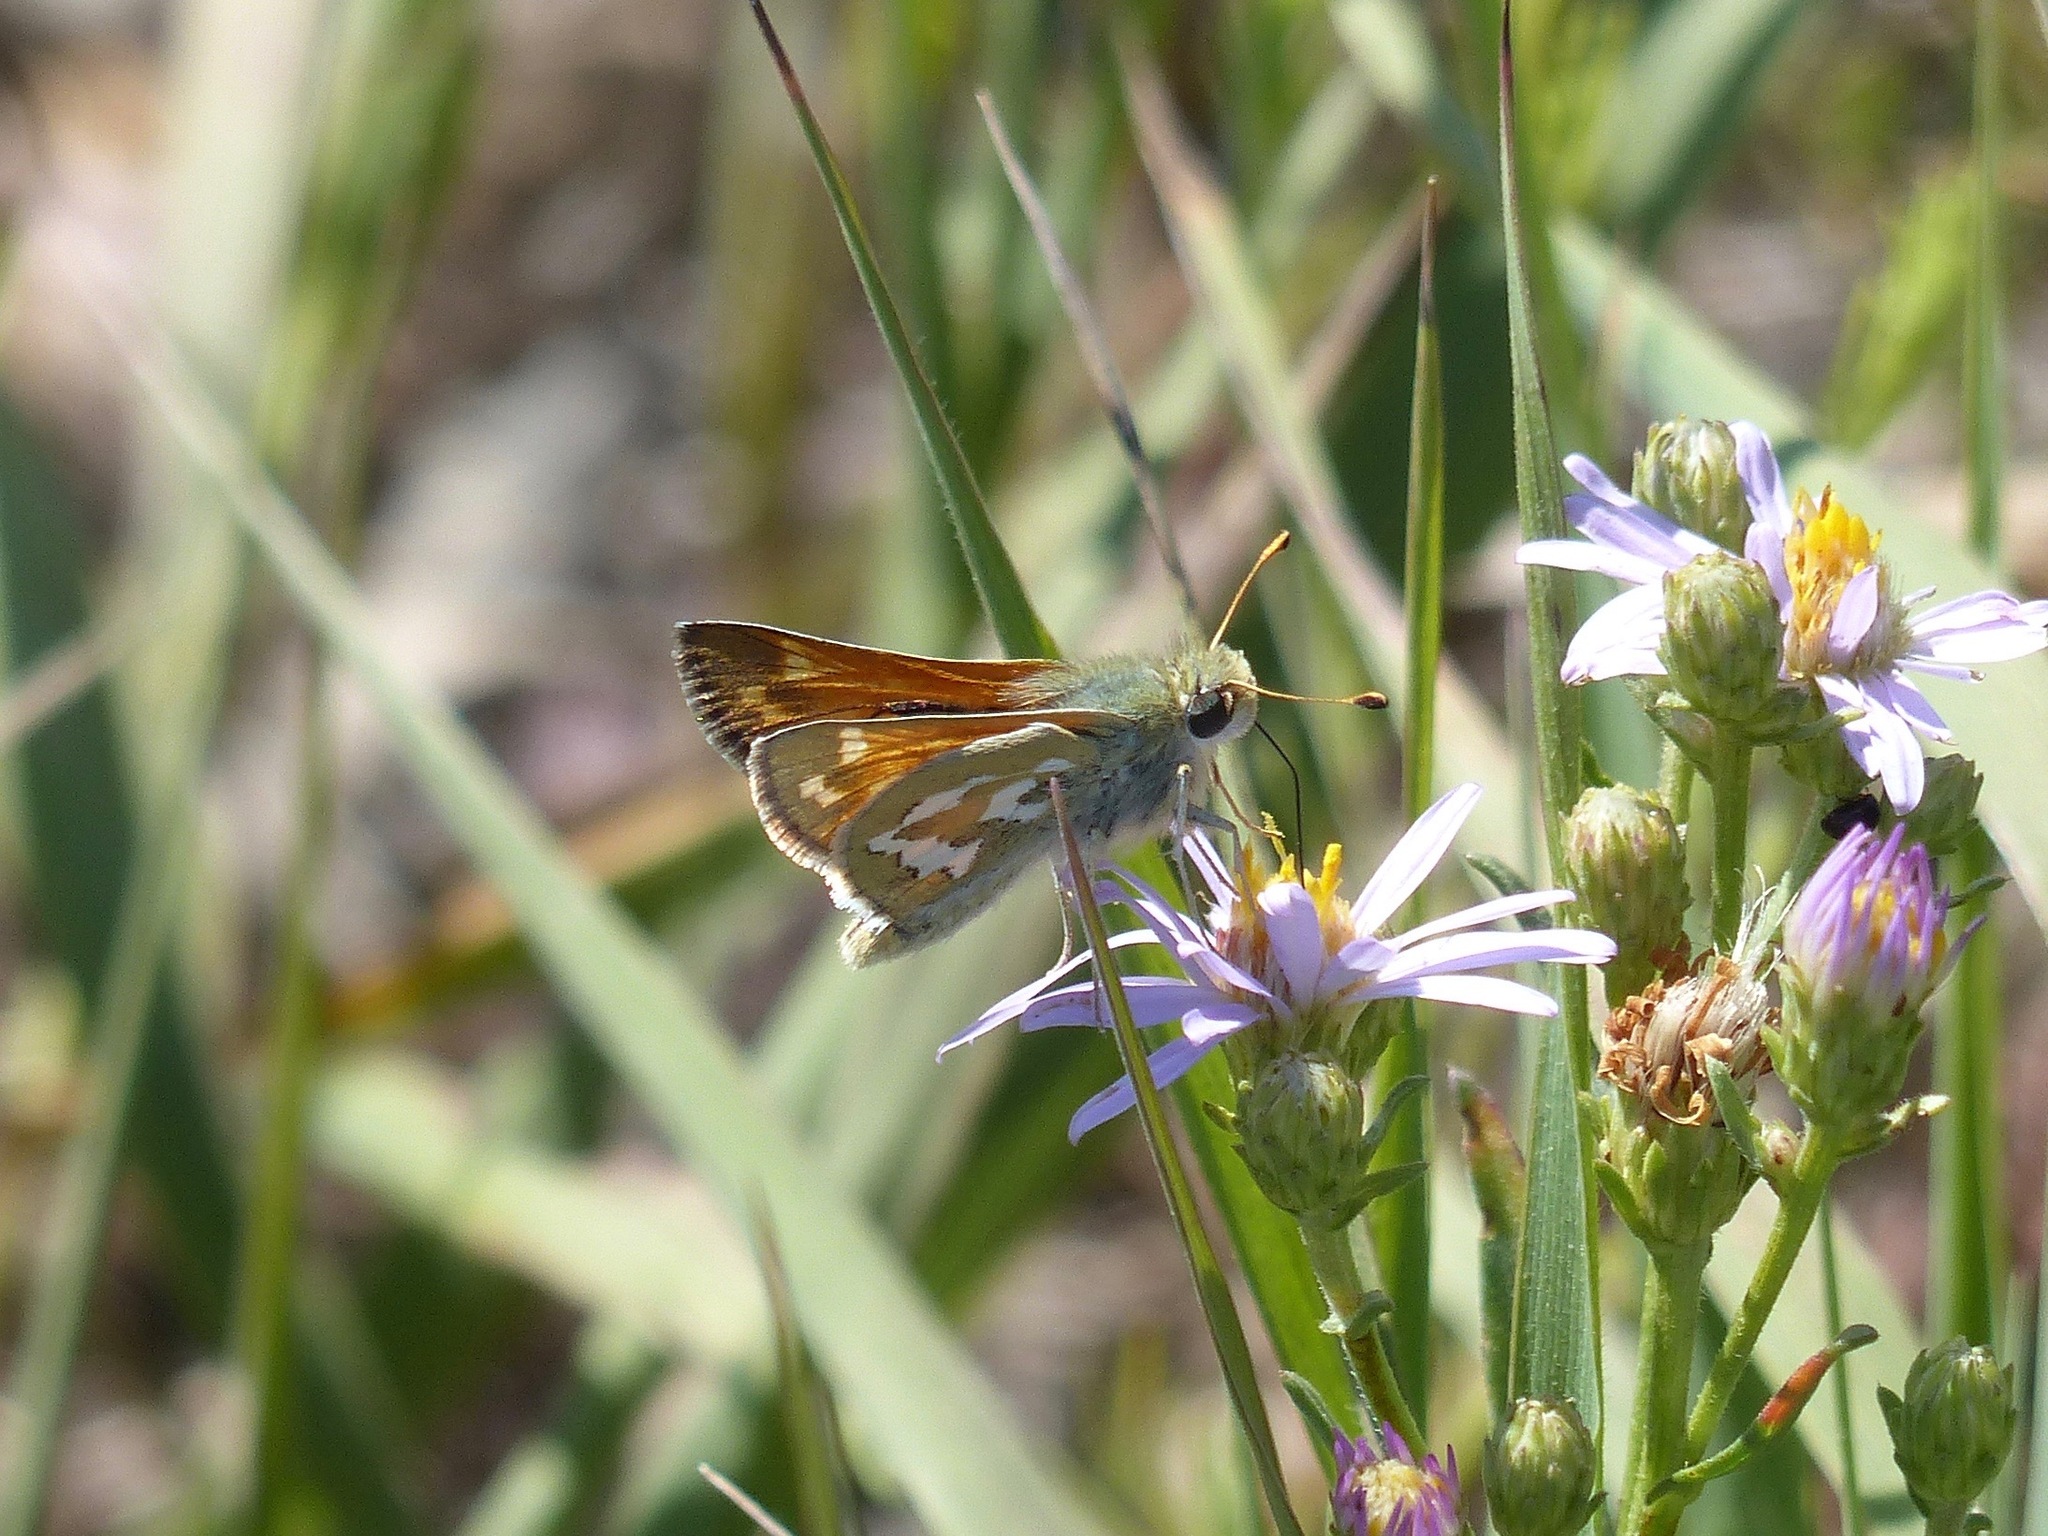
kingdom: Animalia
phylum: Arthropoda
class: Insecta
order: Lepidoptera
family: Hesperiidae
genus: Hesperia
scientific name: Hesperia comma
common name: Common branded skipper
